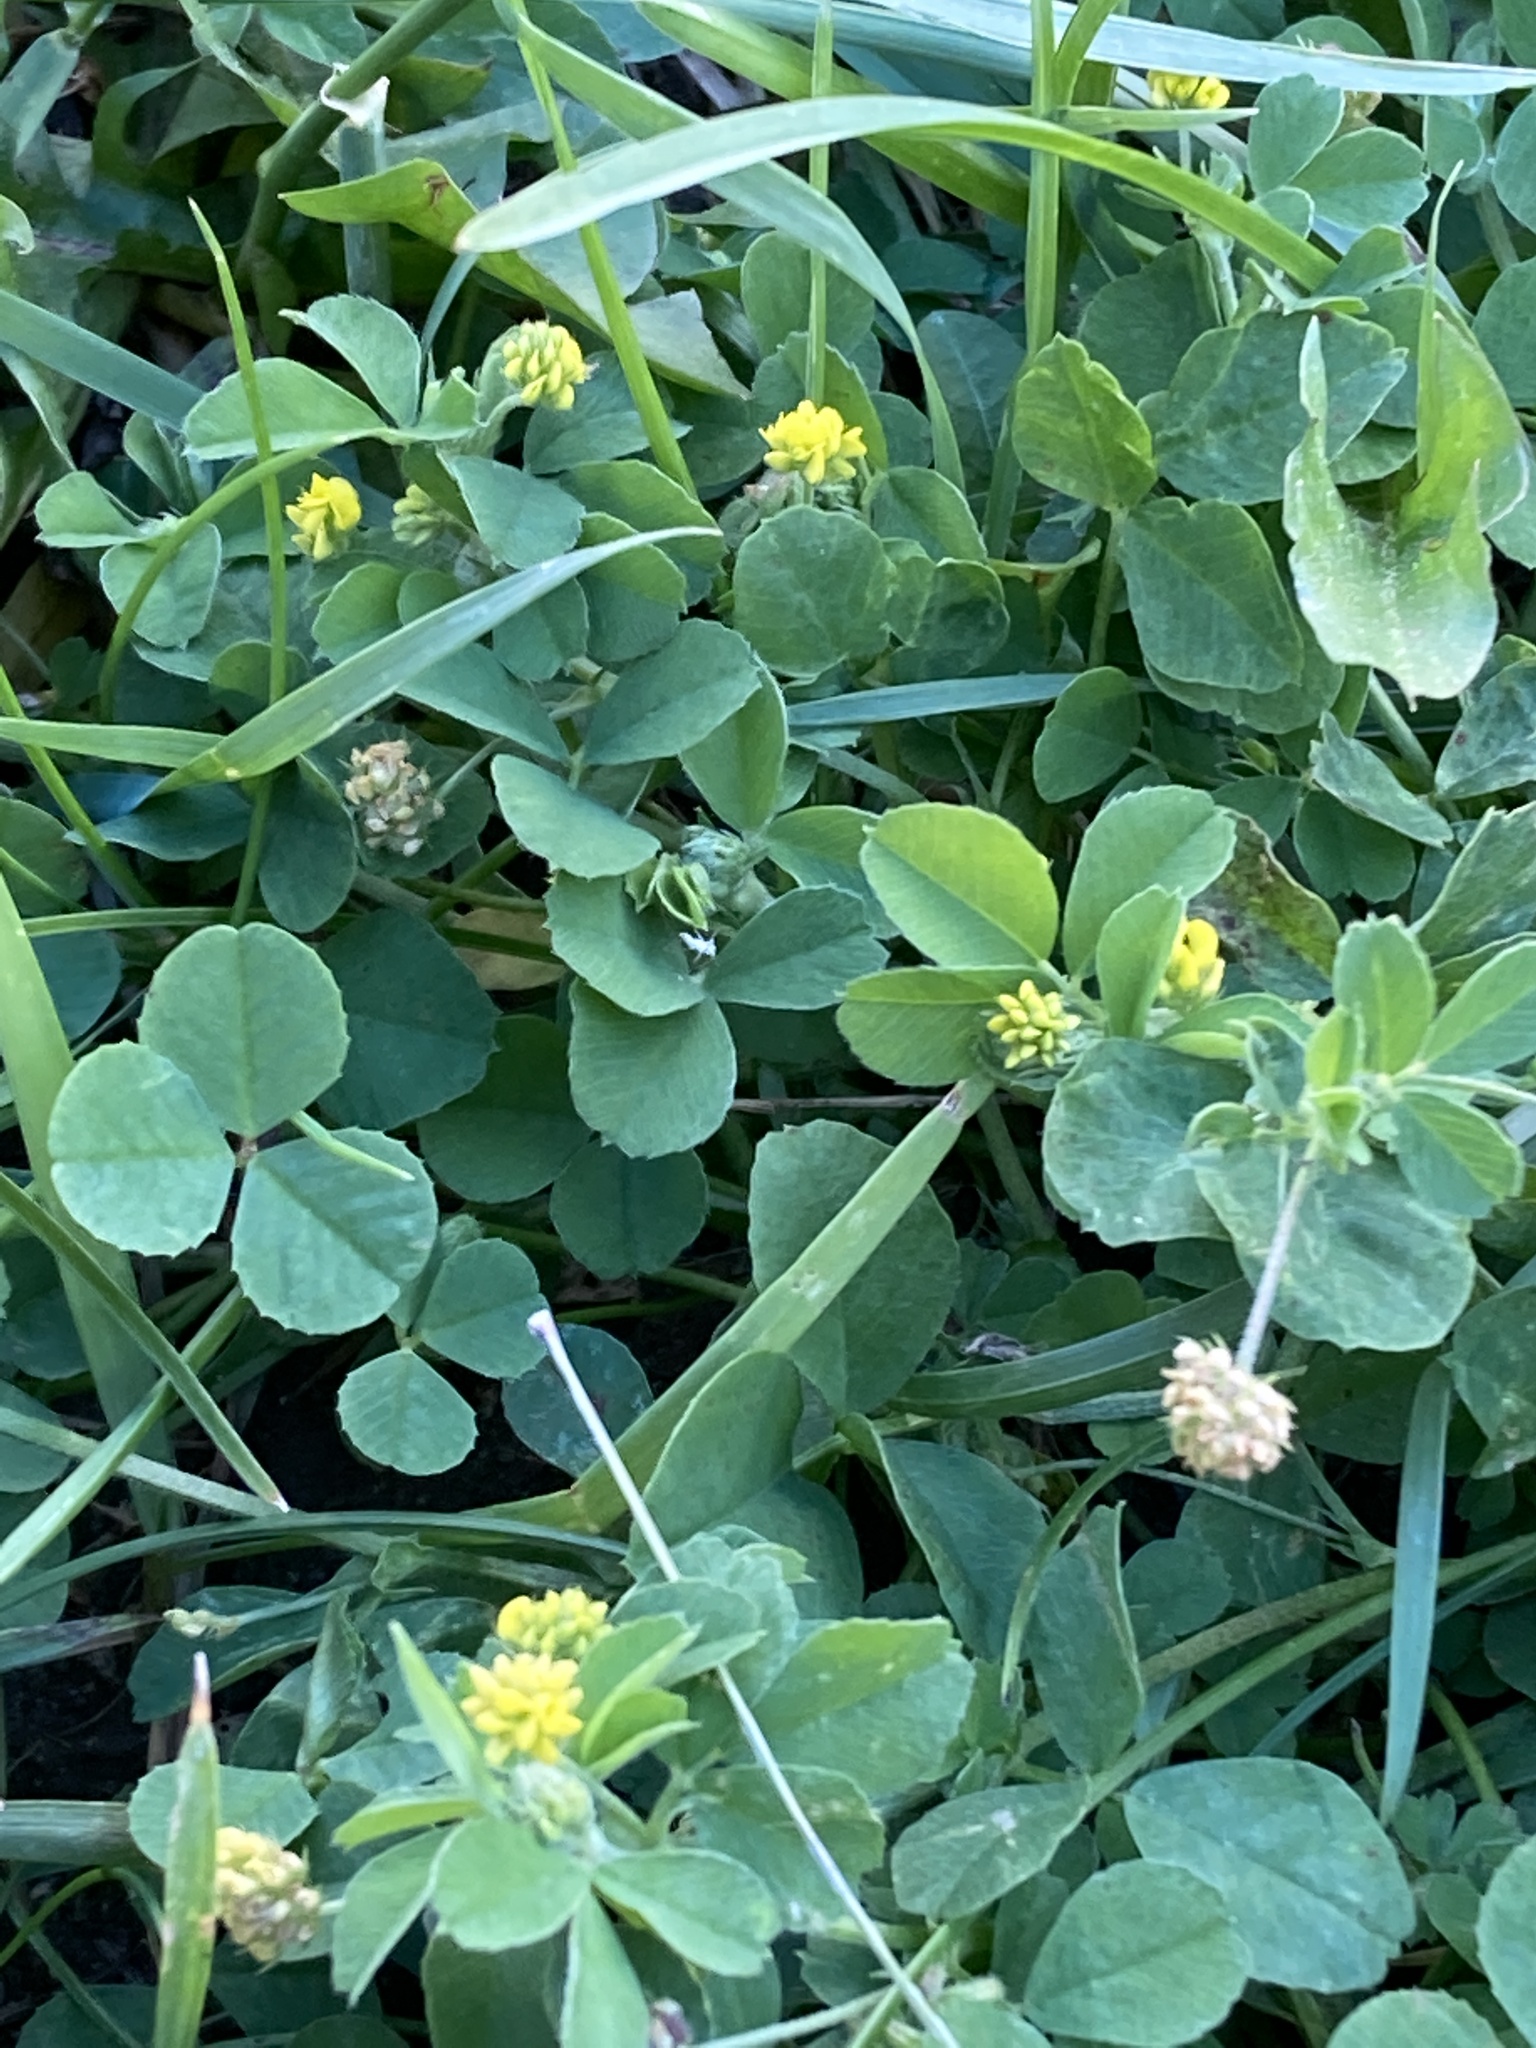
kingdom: Plantae
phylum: Tracheophyta
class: Magnoliopsida
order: Fabales
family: Fabaceae
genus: Medicago
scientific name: Medicago lupulina
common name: Black medick
